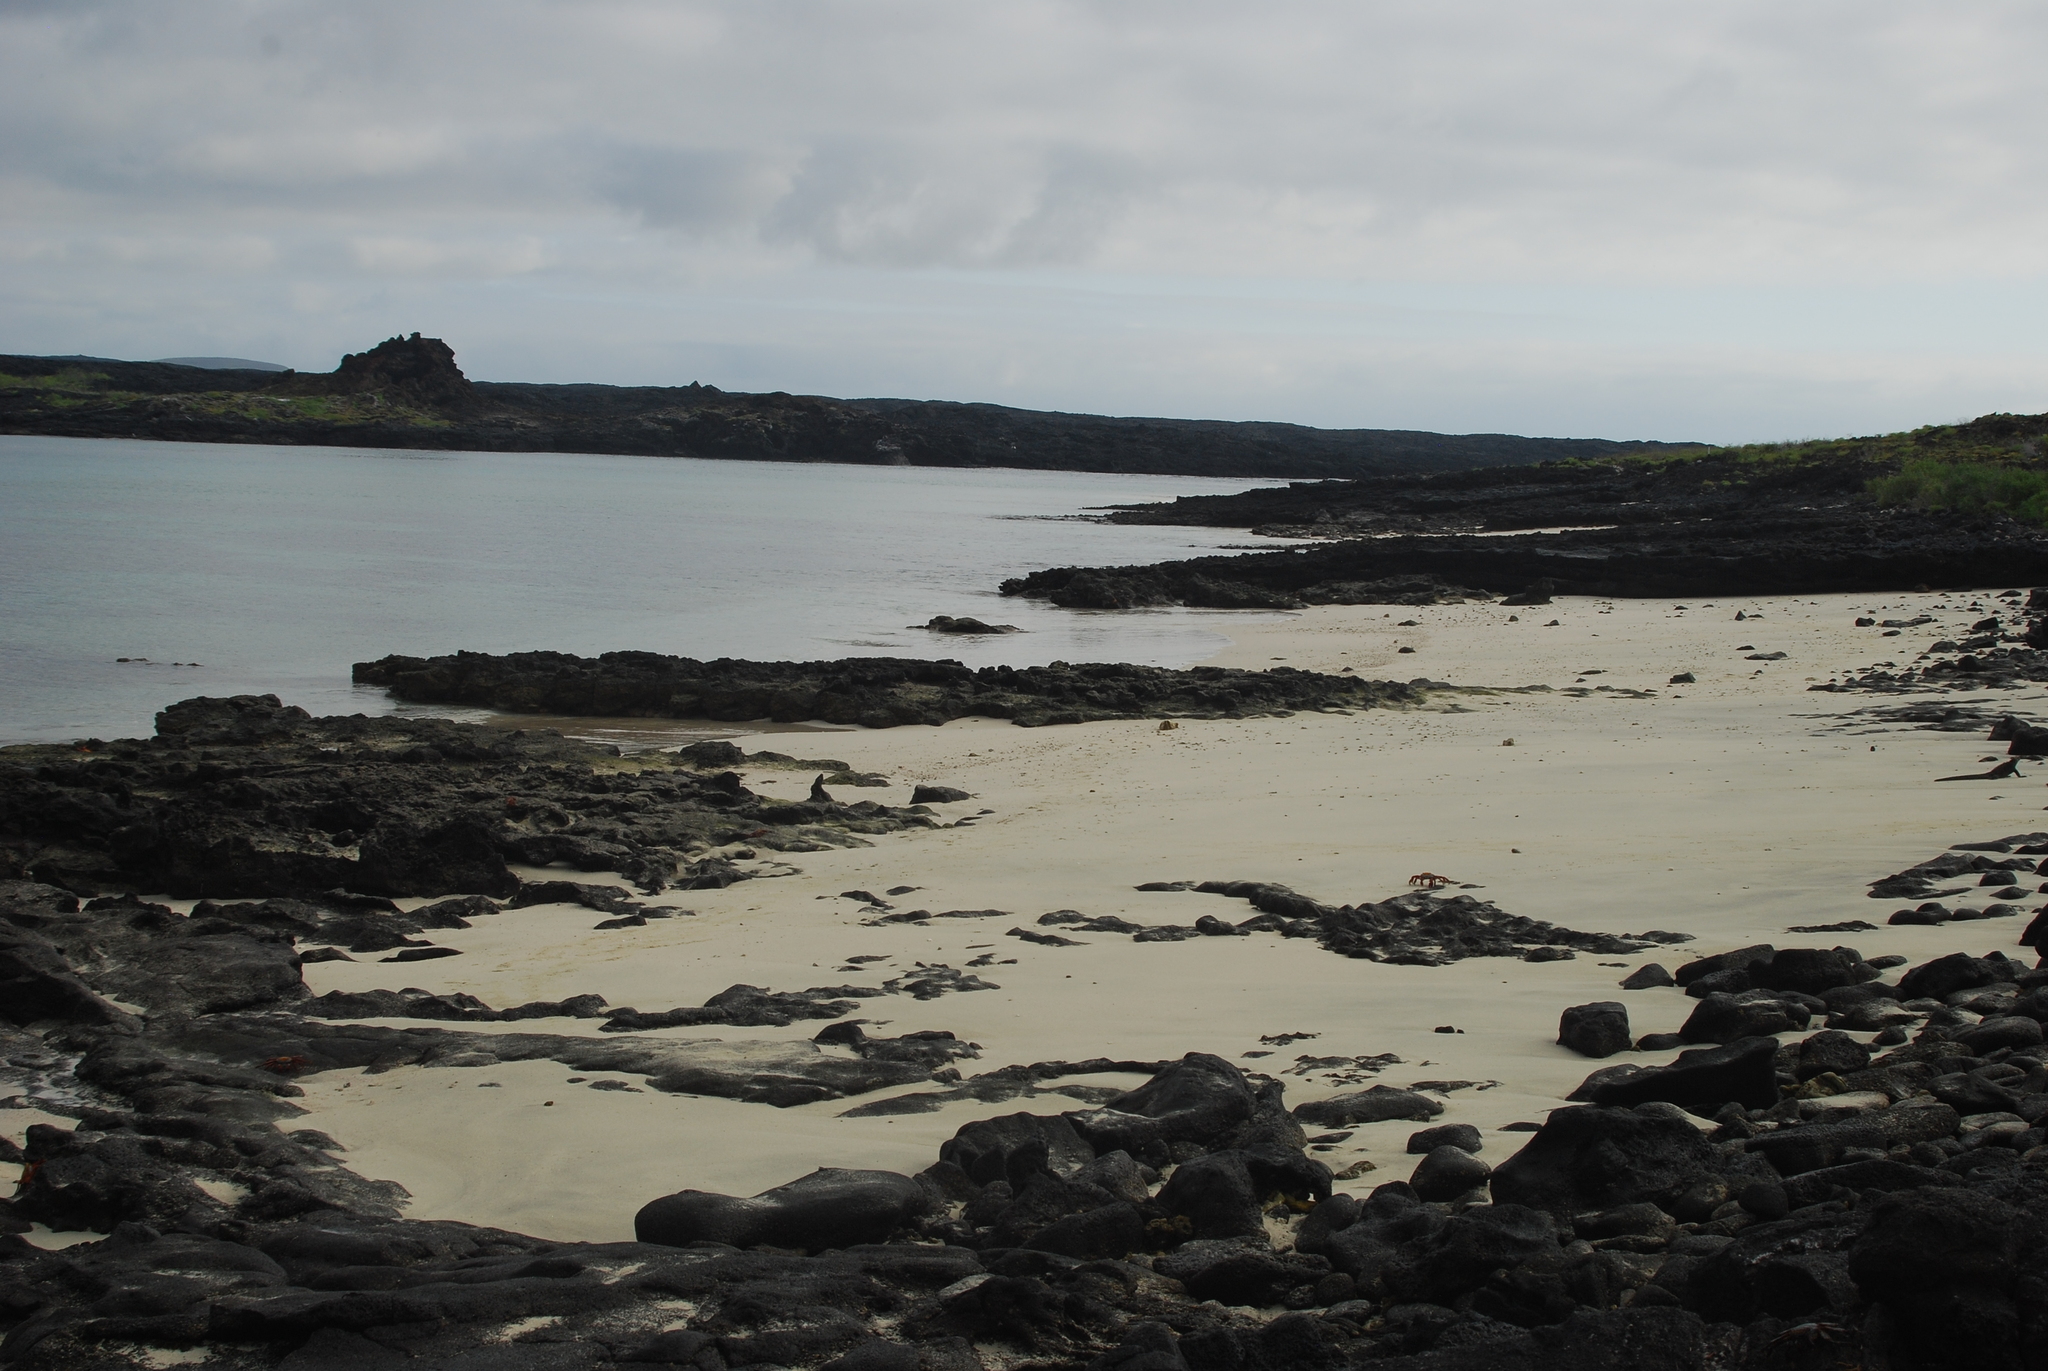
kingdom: Animalia
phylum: Chordata
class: Squamata
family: Iguanidae
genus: Amblyrhynchus
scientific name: Amblyrhynchus cristatus
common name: Marine iguana
